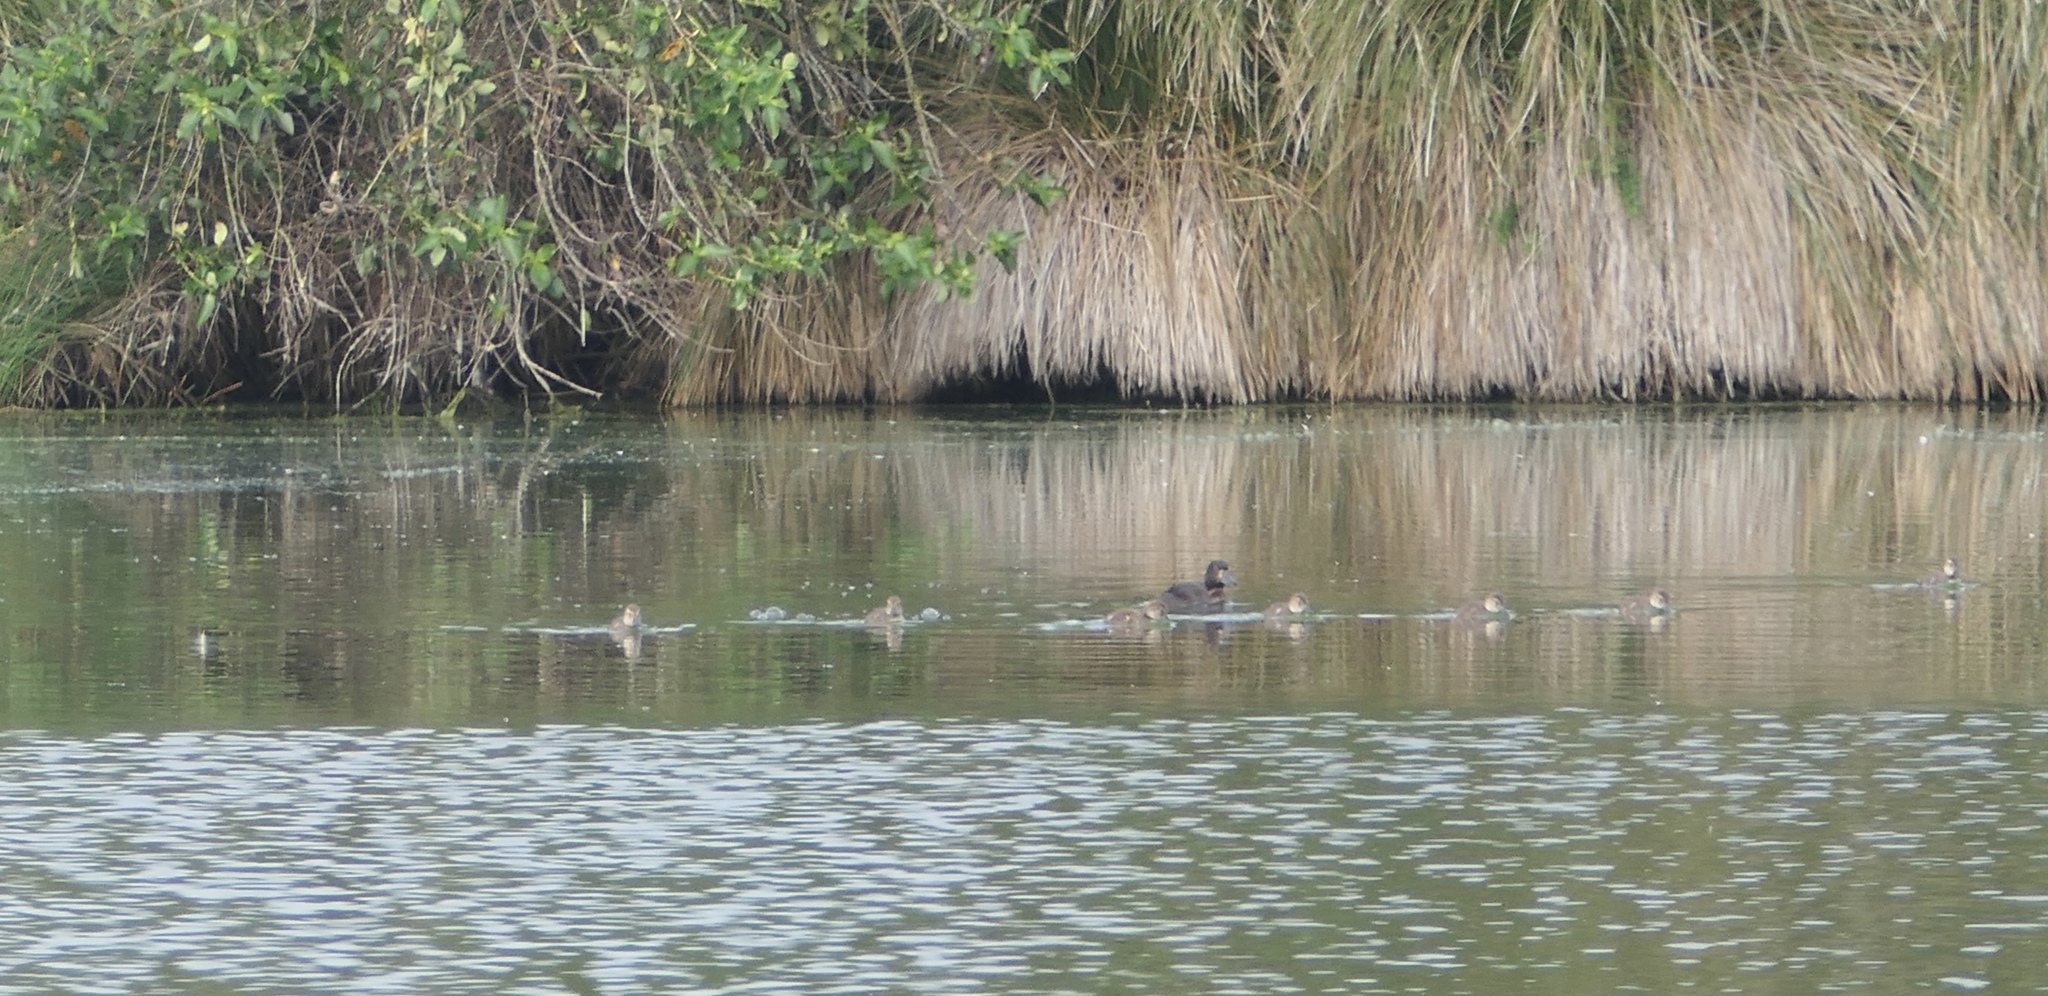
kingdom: Animalia
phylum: Chordata
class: Aves
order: Anseriformes
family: Anatidae
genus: Aythya
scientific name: Aythya novaeseelandiae
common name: New zealand scaup
